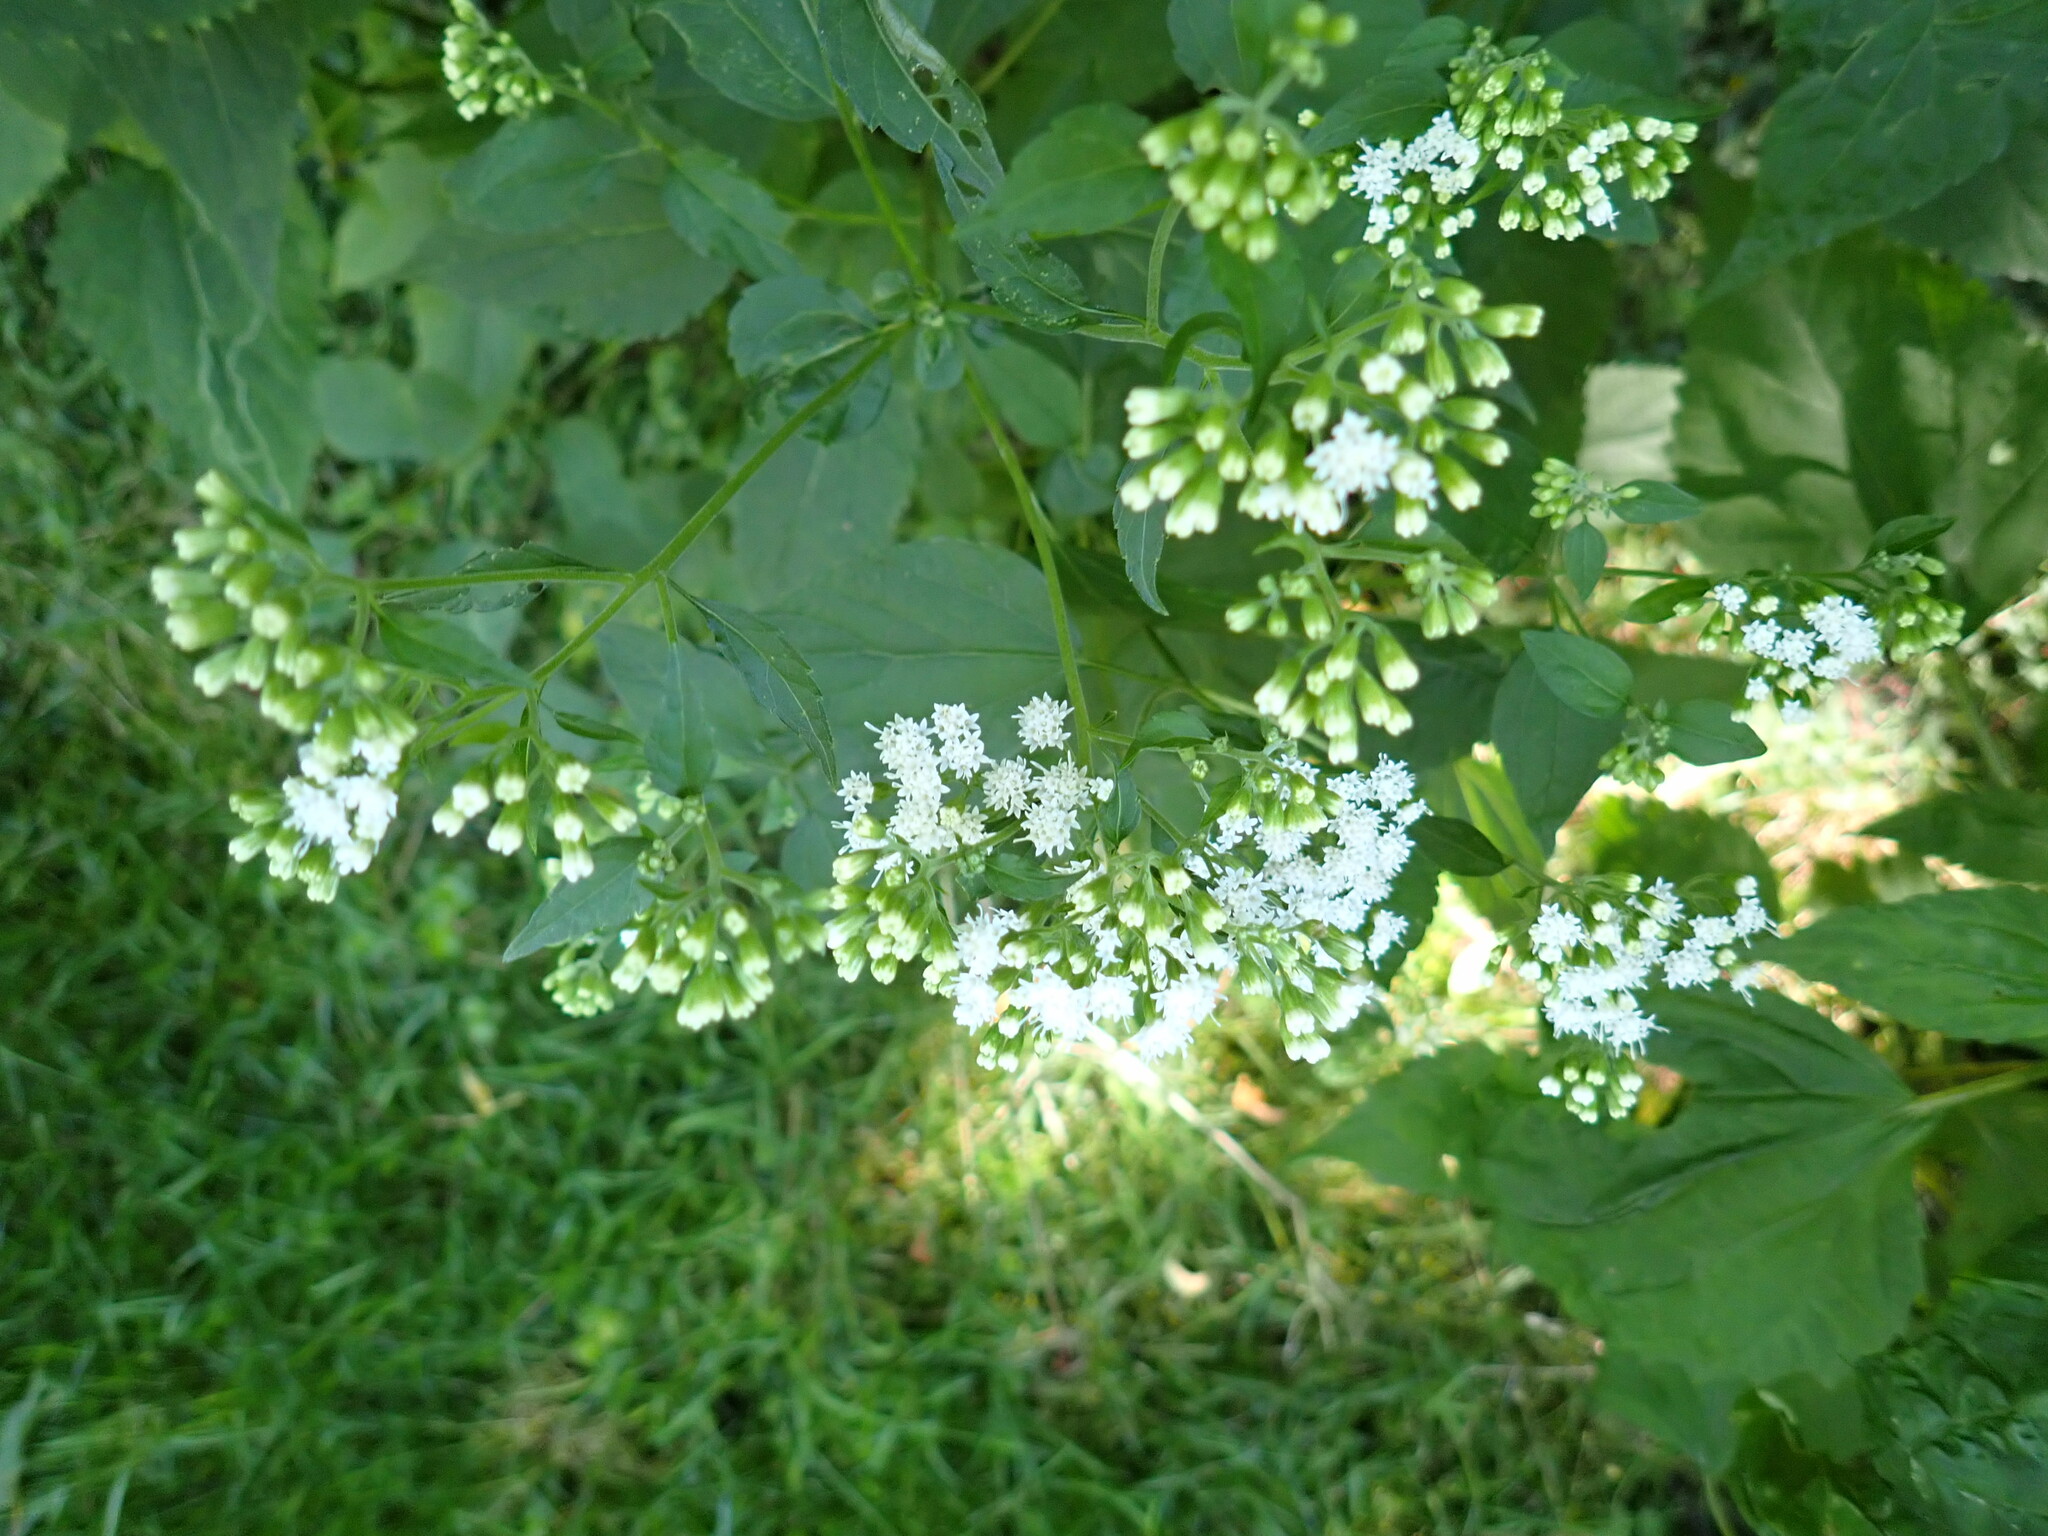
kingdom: Plantae
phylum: Tracheophyta
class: Magnoliopsida
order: Asterales
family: Asteraceae
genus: Ageratina
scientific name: Ageratina altissima
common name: White snakeroot
